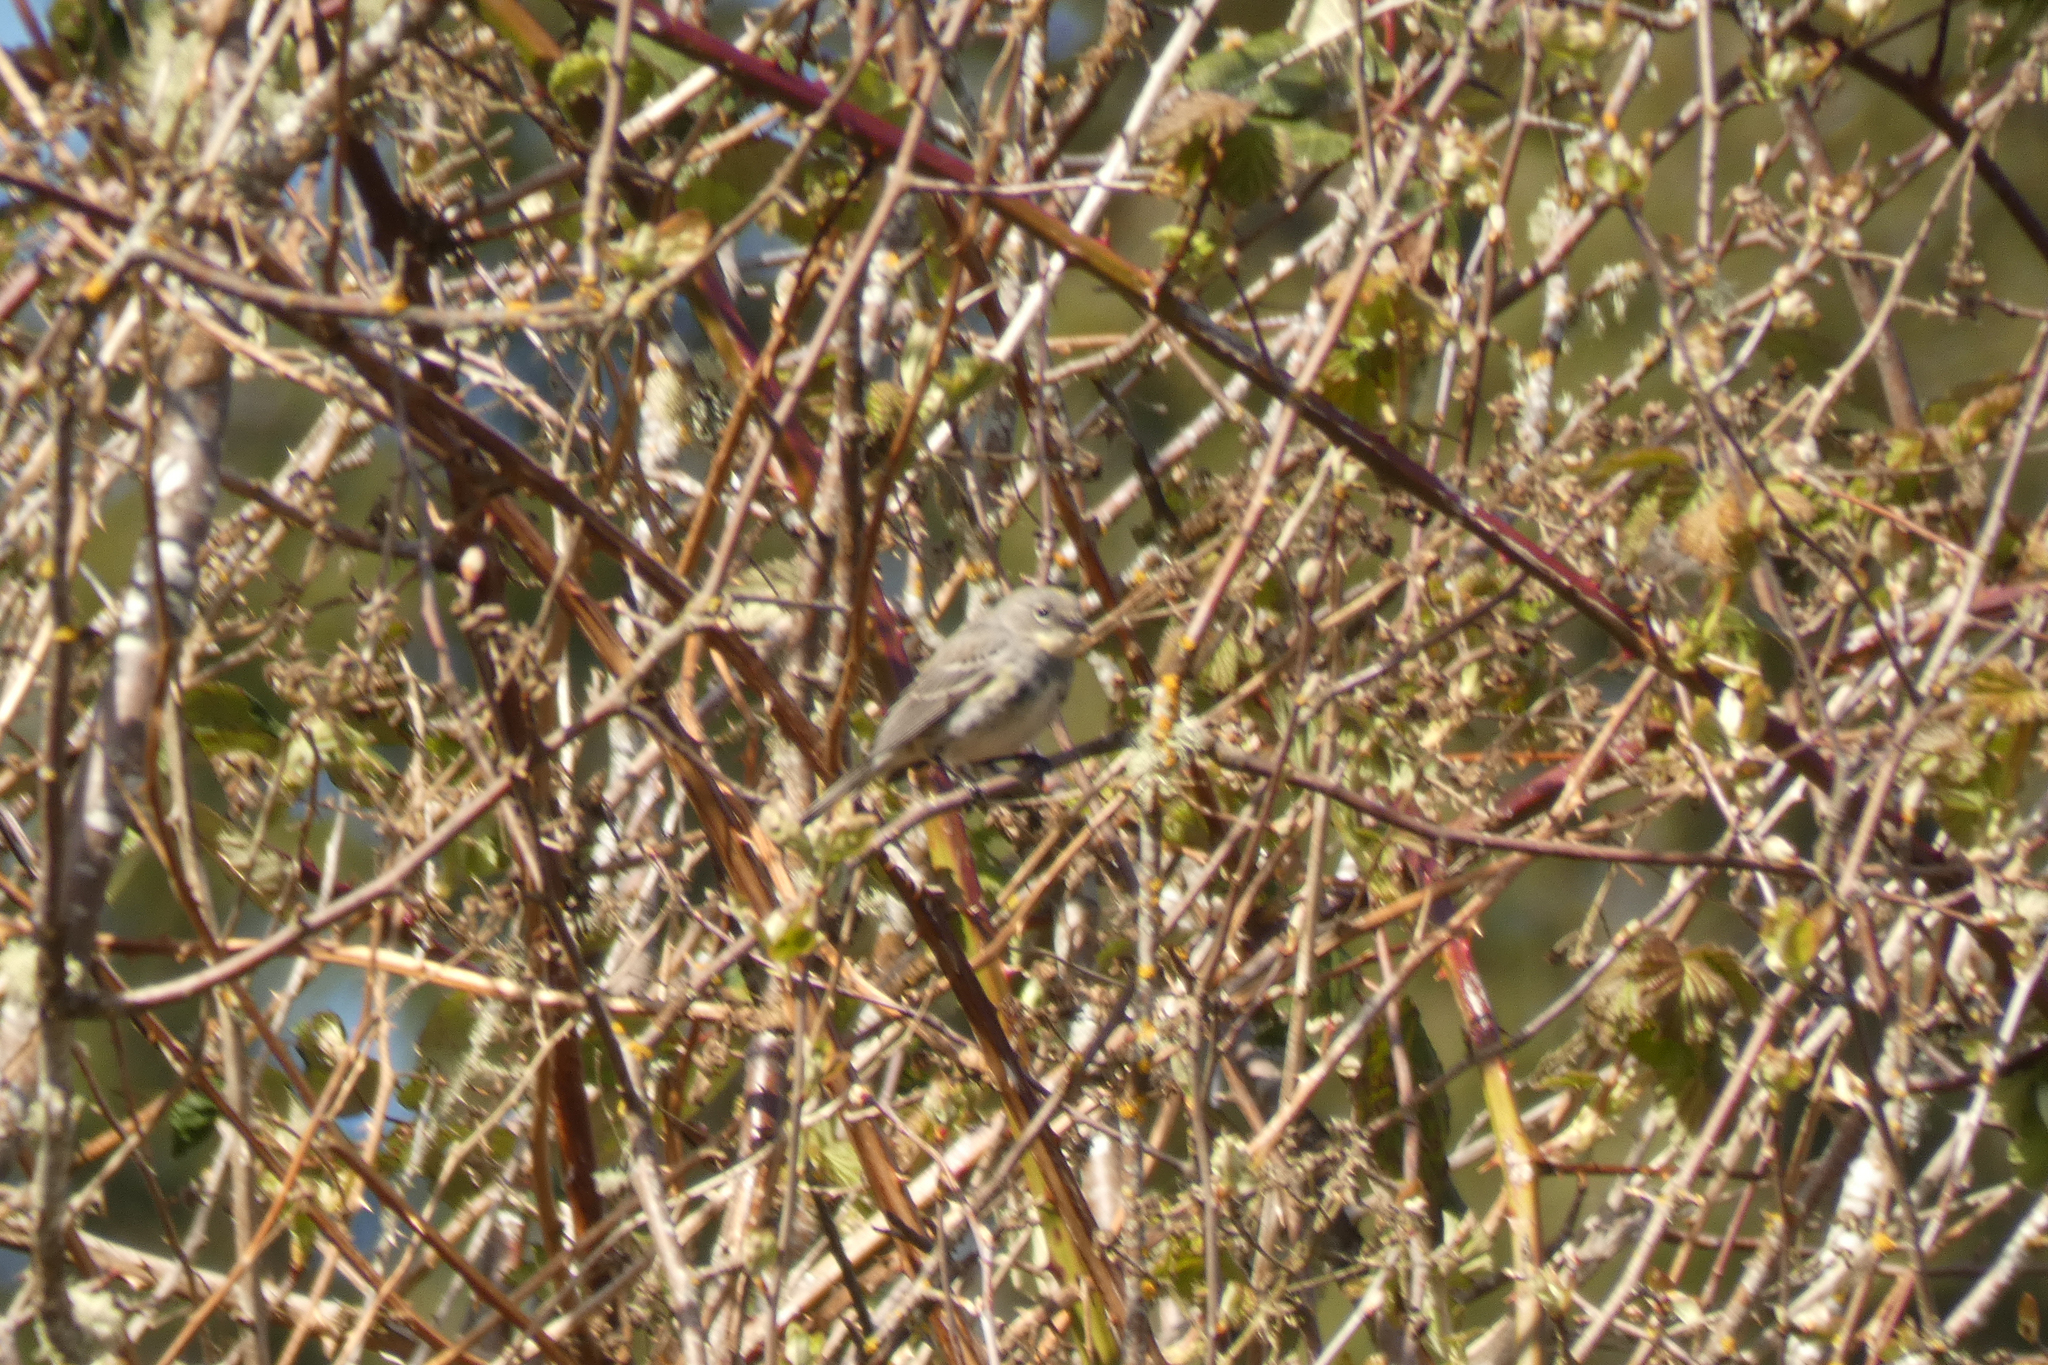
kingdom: Animalia
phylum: Chordata
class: Aves
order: Passeriformes
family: Parulidae
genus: Setophaga
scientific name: Setophaga coronata
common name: Myrtle warbler
